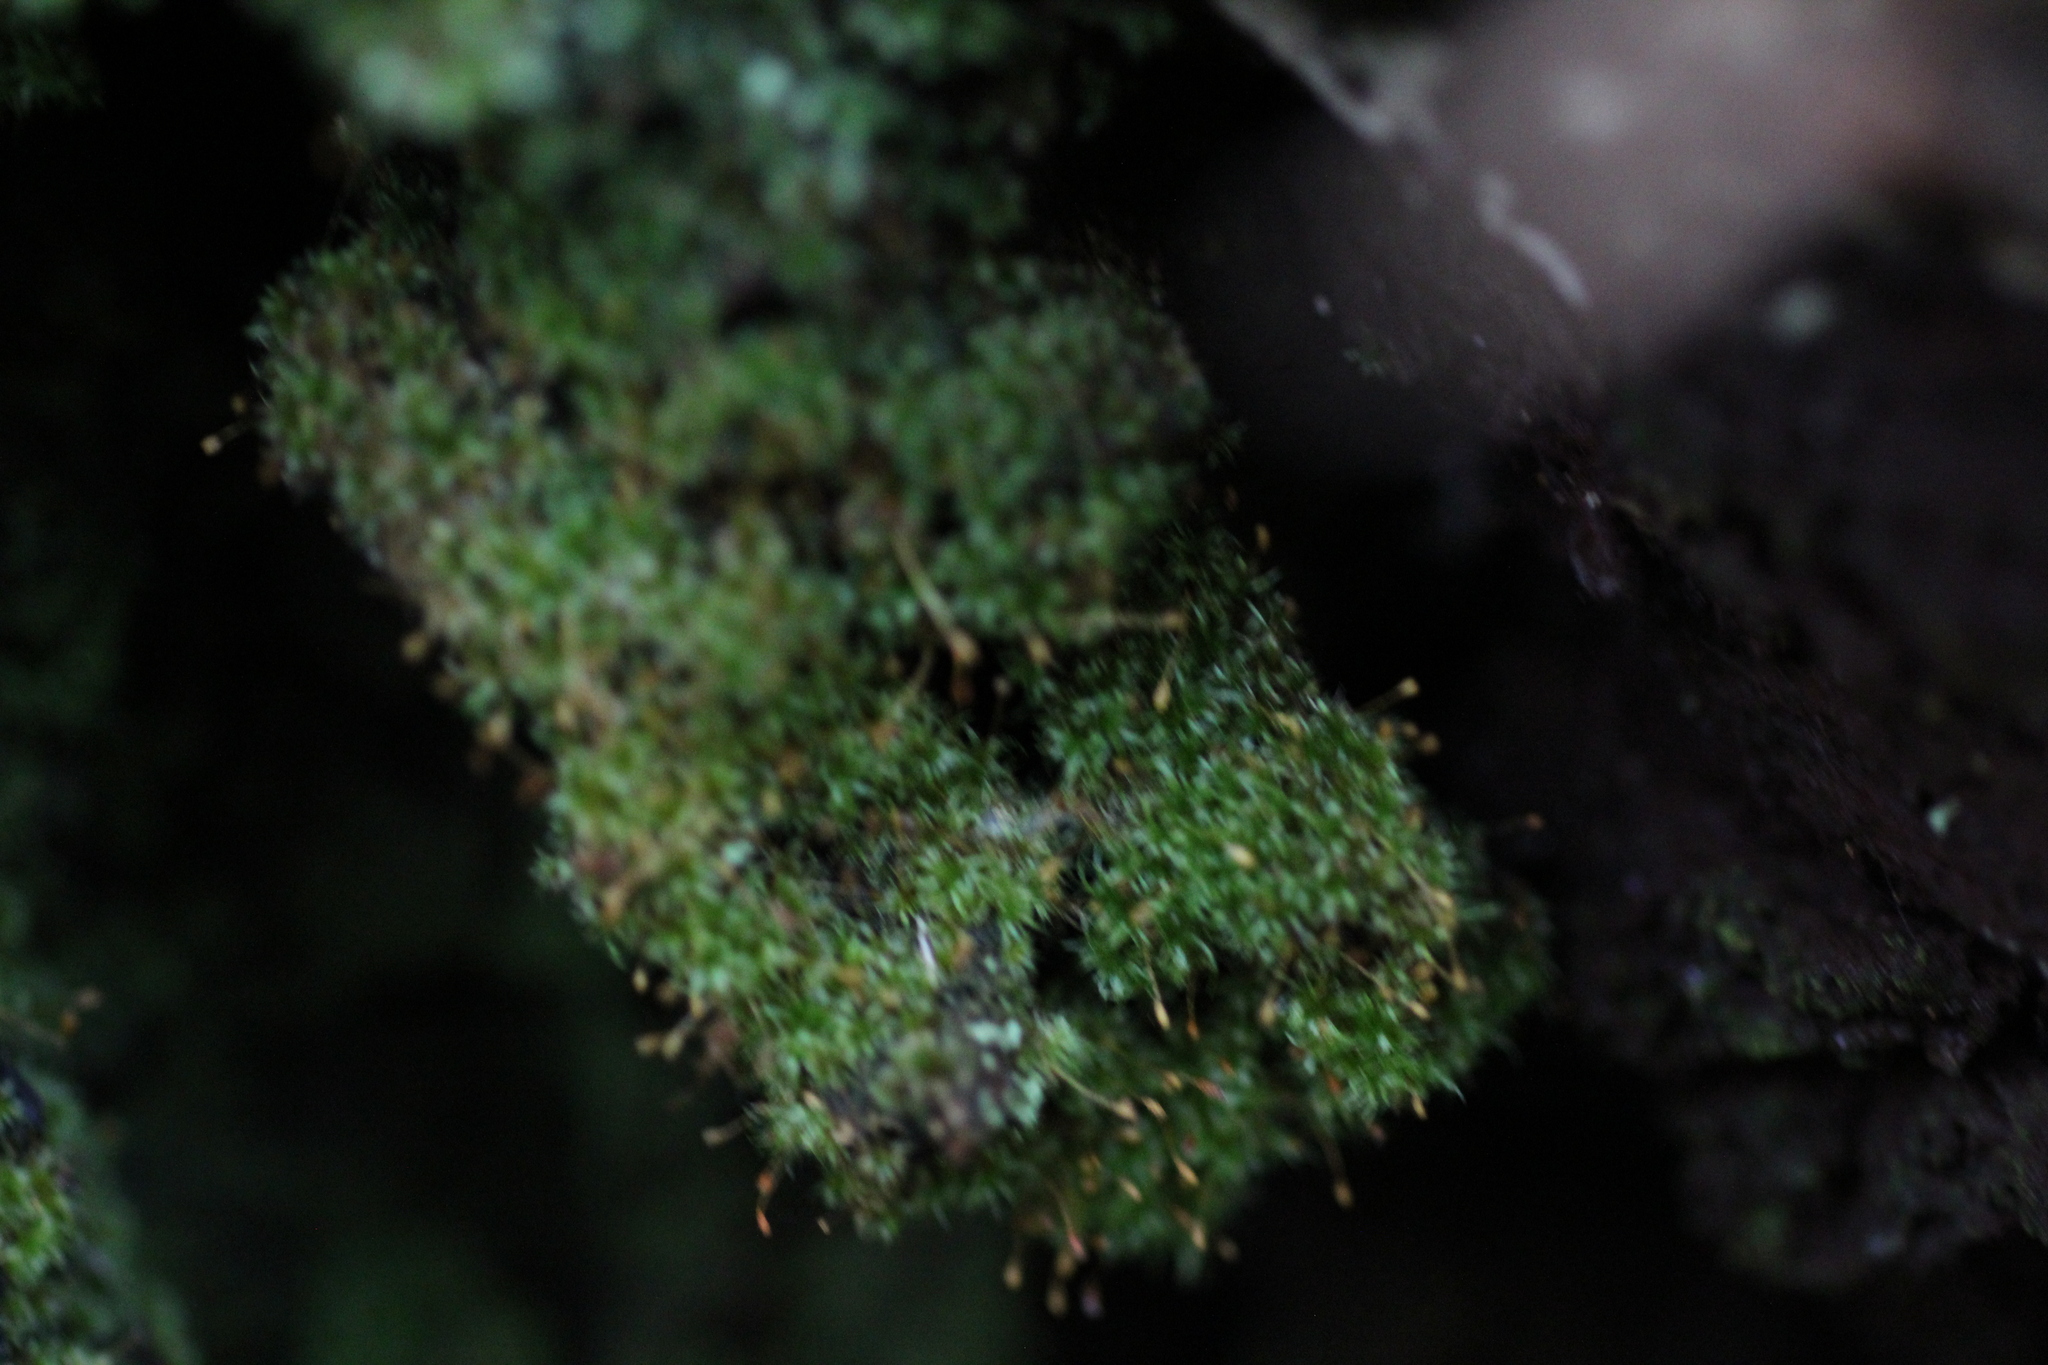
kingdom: Plantae
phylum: Bryophyta
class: Bryopsida
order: Orthodontiales
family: Orthodontiaceae
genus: Orthodontium
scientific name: Orthodontium lineare
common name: Cape thread-moss
